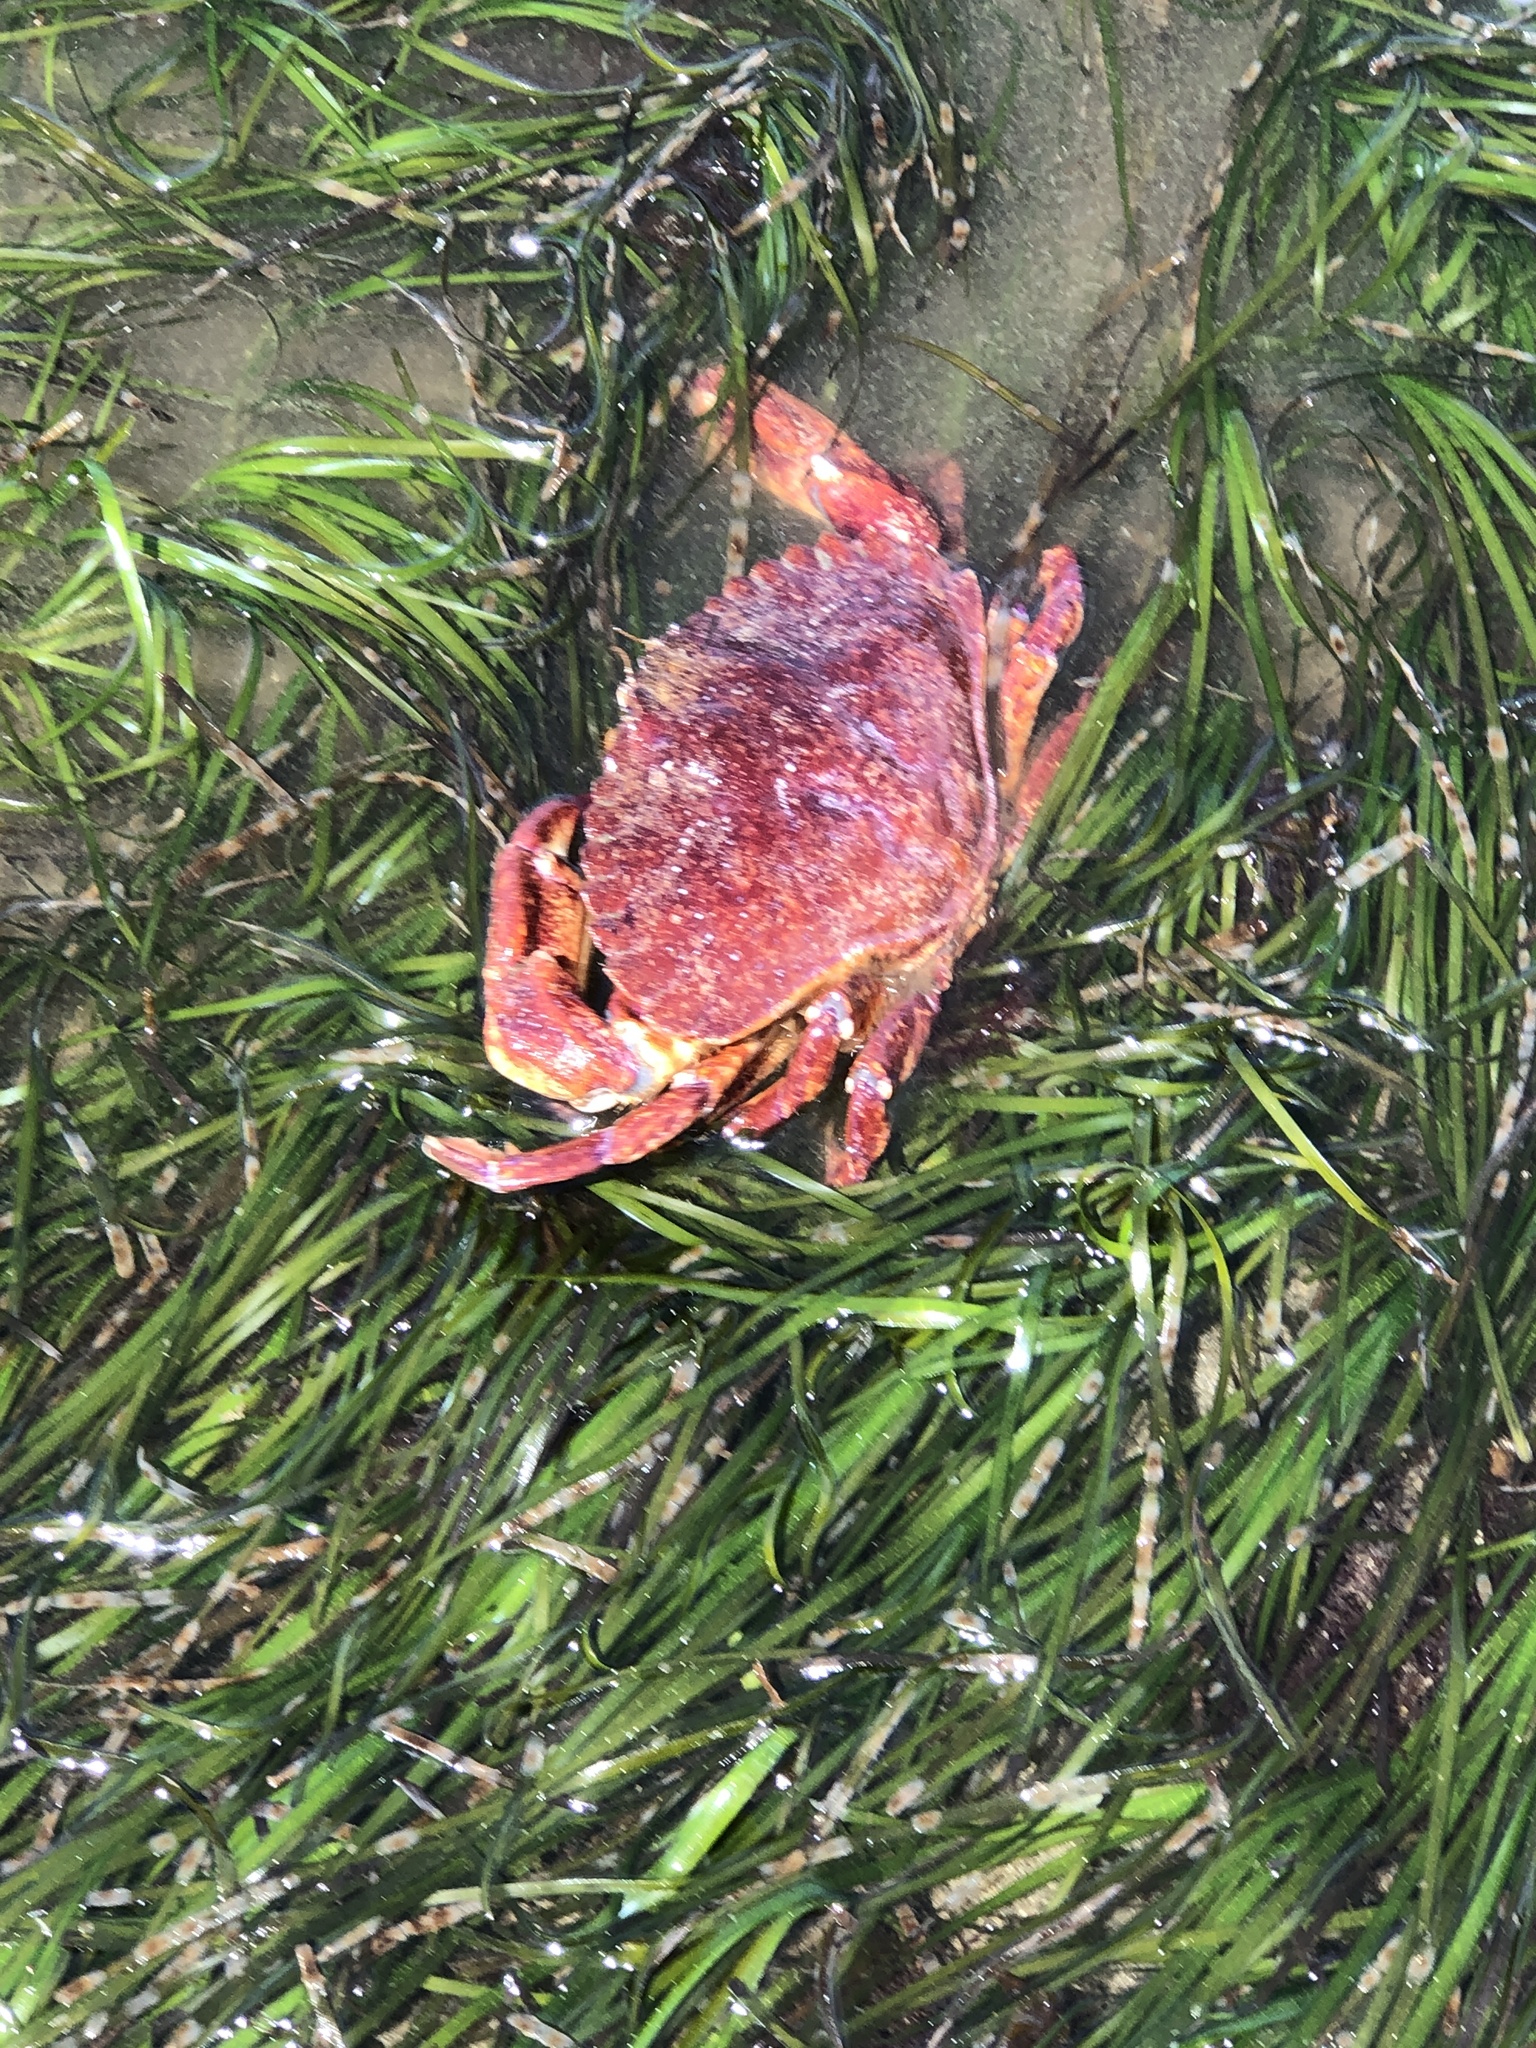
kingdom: Animalia
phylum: Arthropoda
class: Malacostraca
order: Decapoda
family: Cancridae
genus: Cancer
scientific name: Cancer productus
